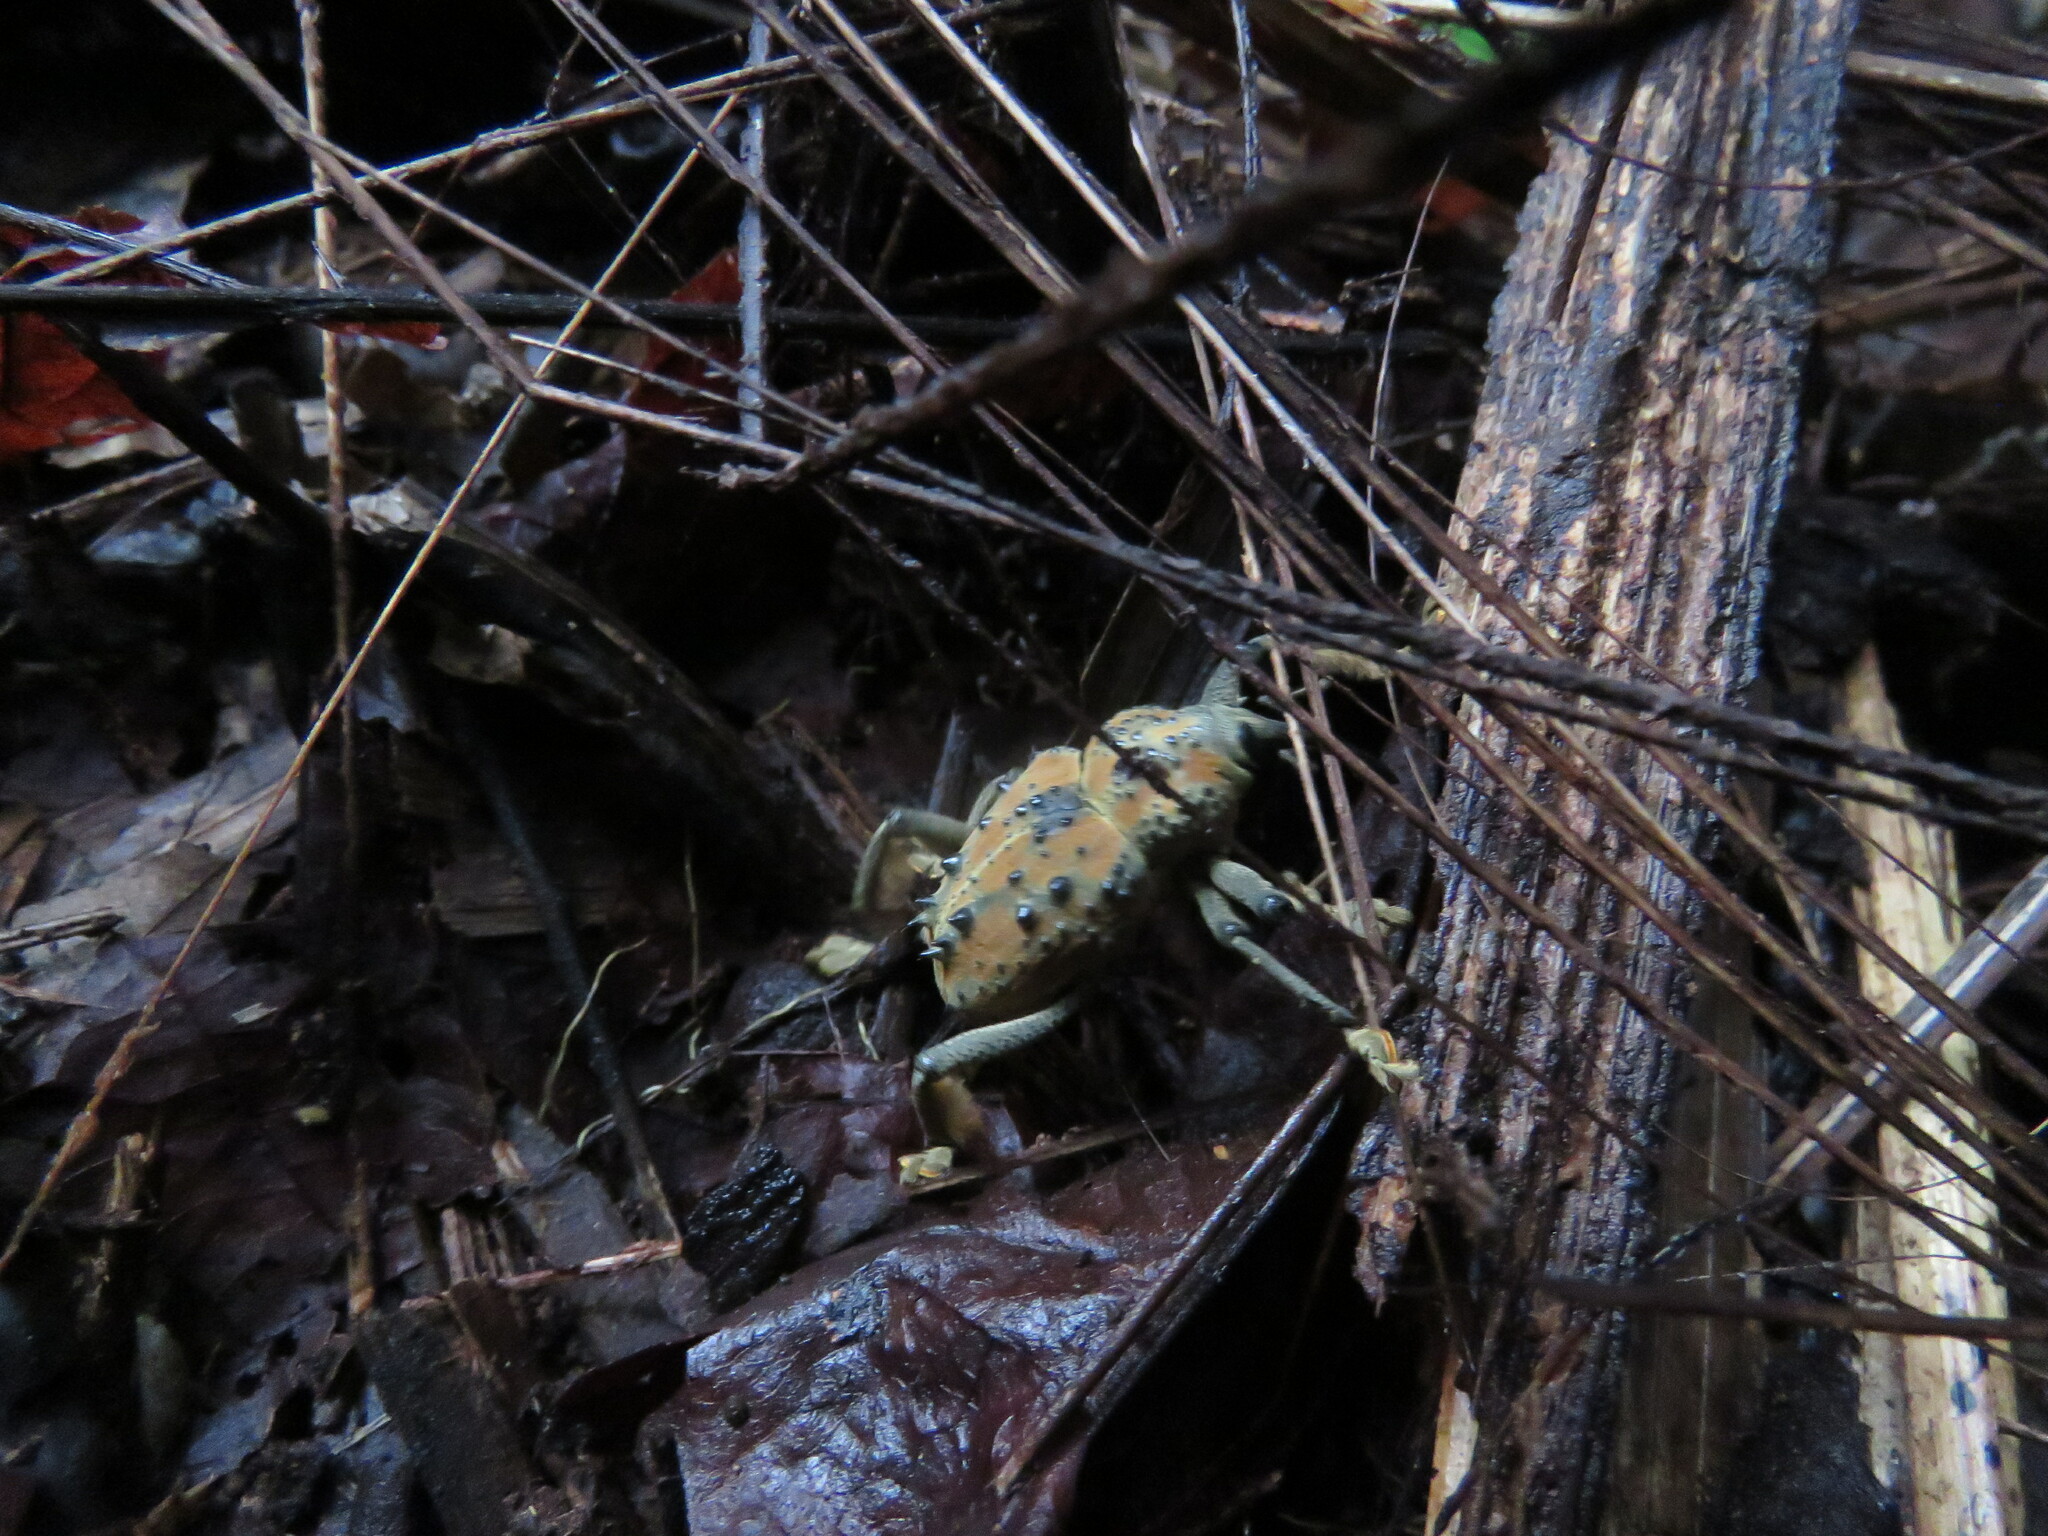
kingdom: Animalia
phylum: Arthropoda
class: Insecta
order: Coleoptera
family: Curculionidae
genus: Ozopherus
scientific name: Ozopherus muricatus
